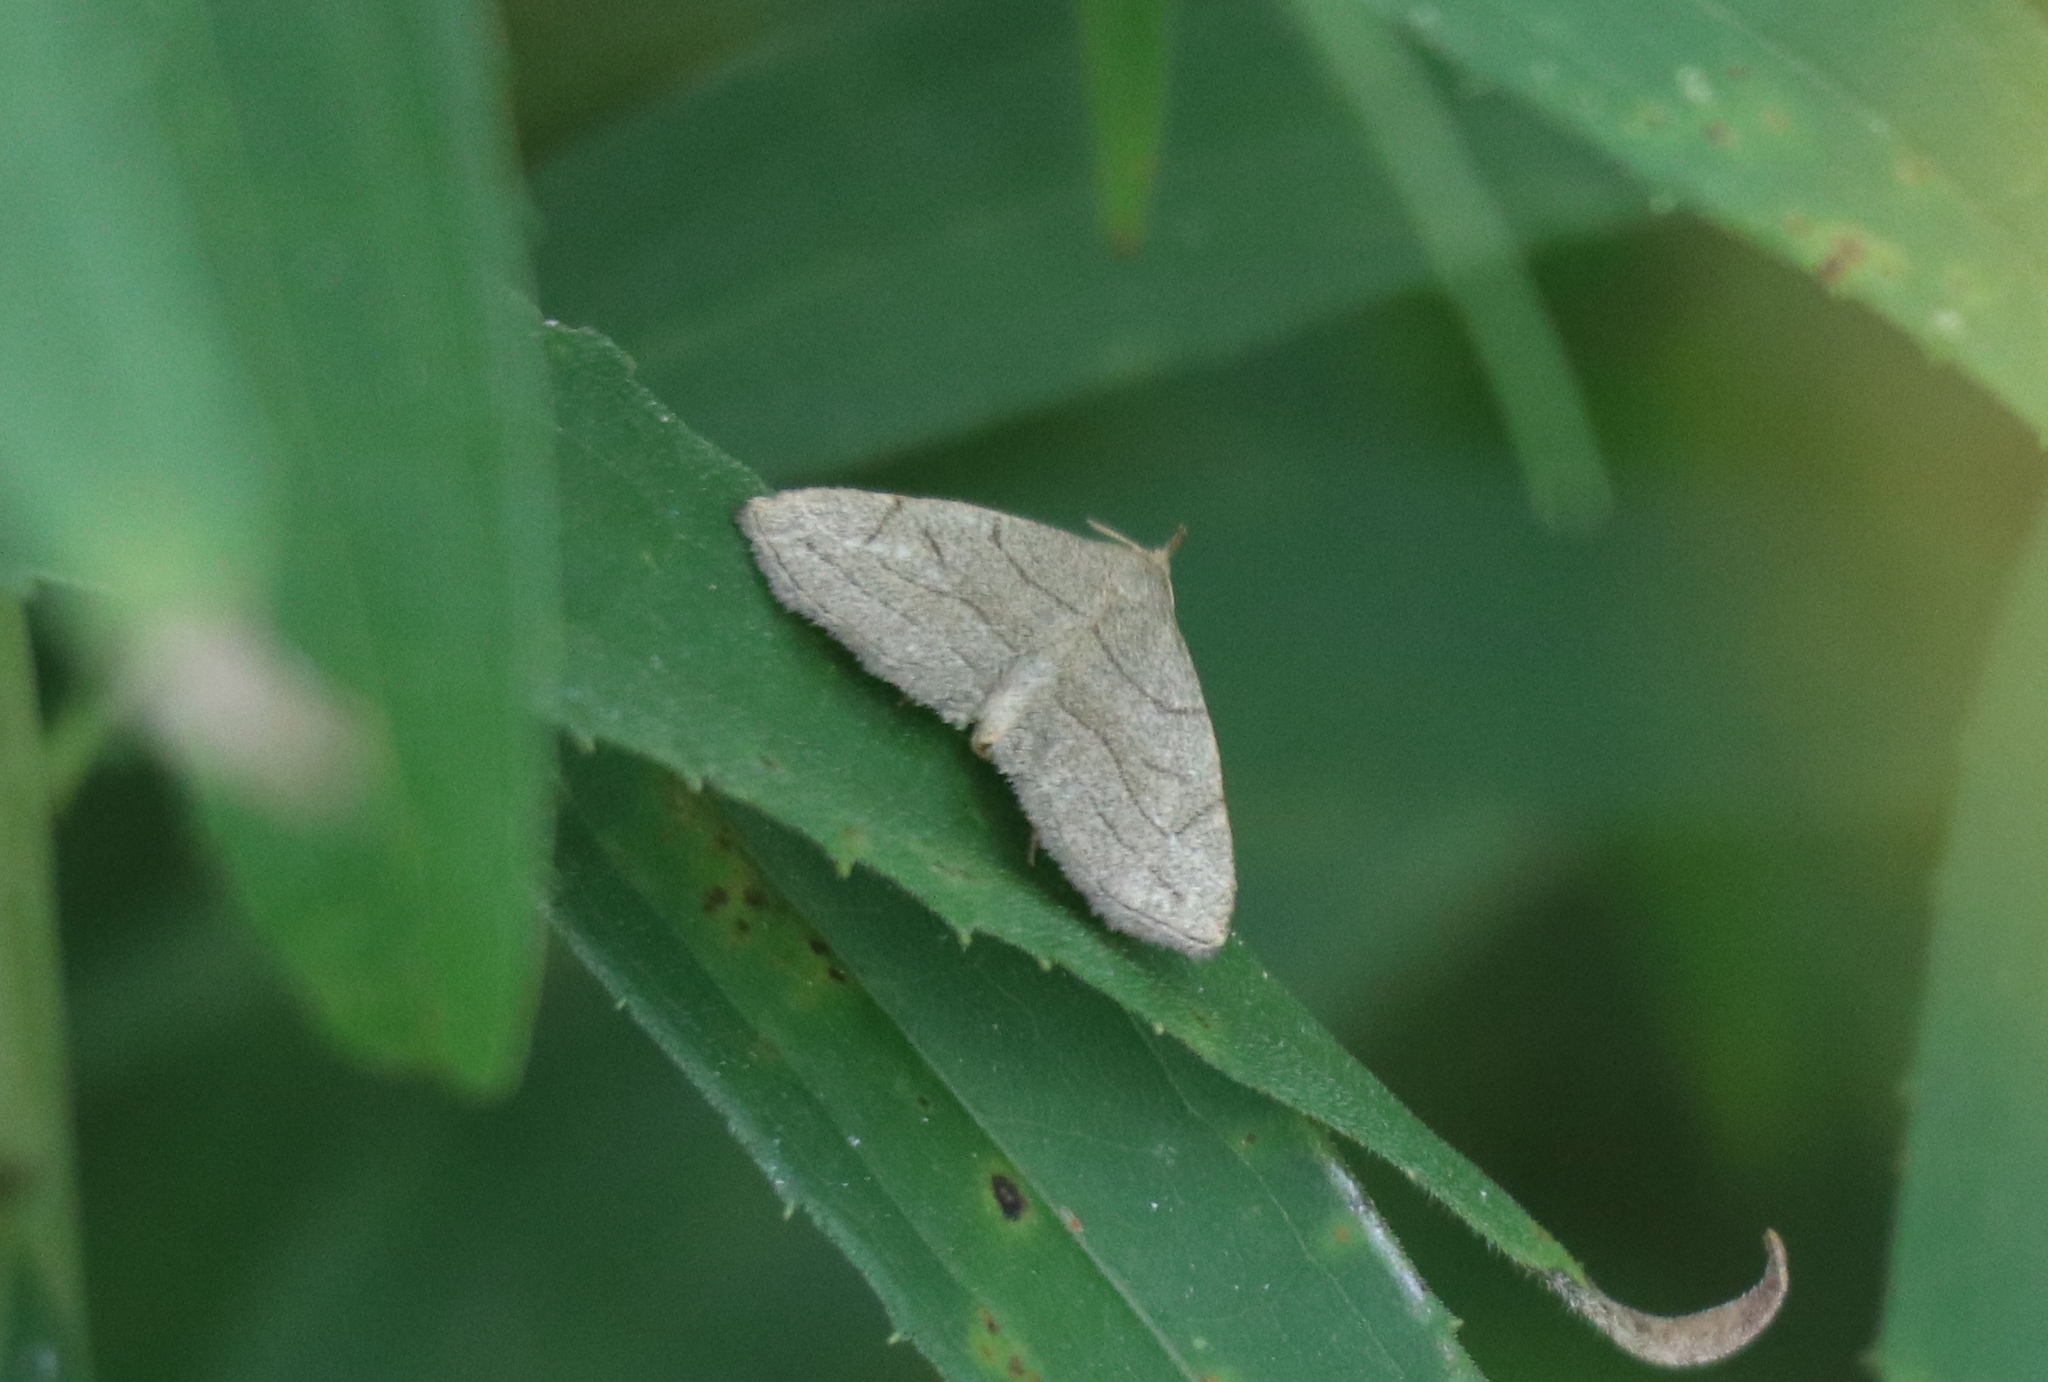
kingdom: Animalia
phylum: Arthropoda
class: Insecta
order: Lepidoptera
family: Erebidae
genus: Zanclognatha
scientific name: Zanclognatha pedipilalis
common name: Grayish fan-foot
